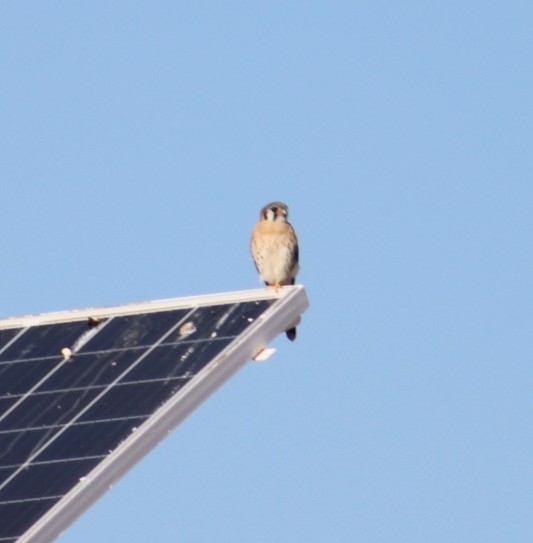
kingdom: Animalia
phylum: Chordata
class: Aves
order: Falconiformes
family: Falconidae
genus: Falco
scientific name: Falco sparverius
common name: American kestrel
